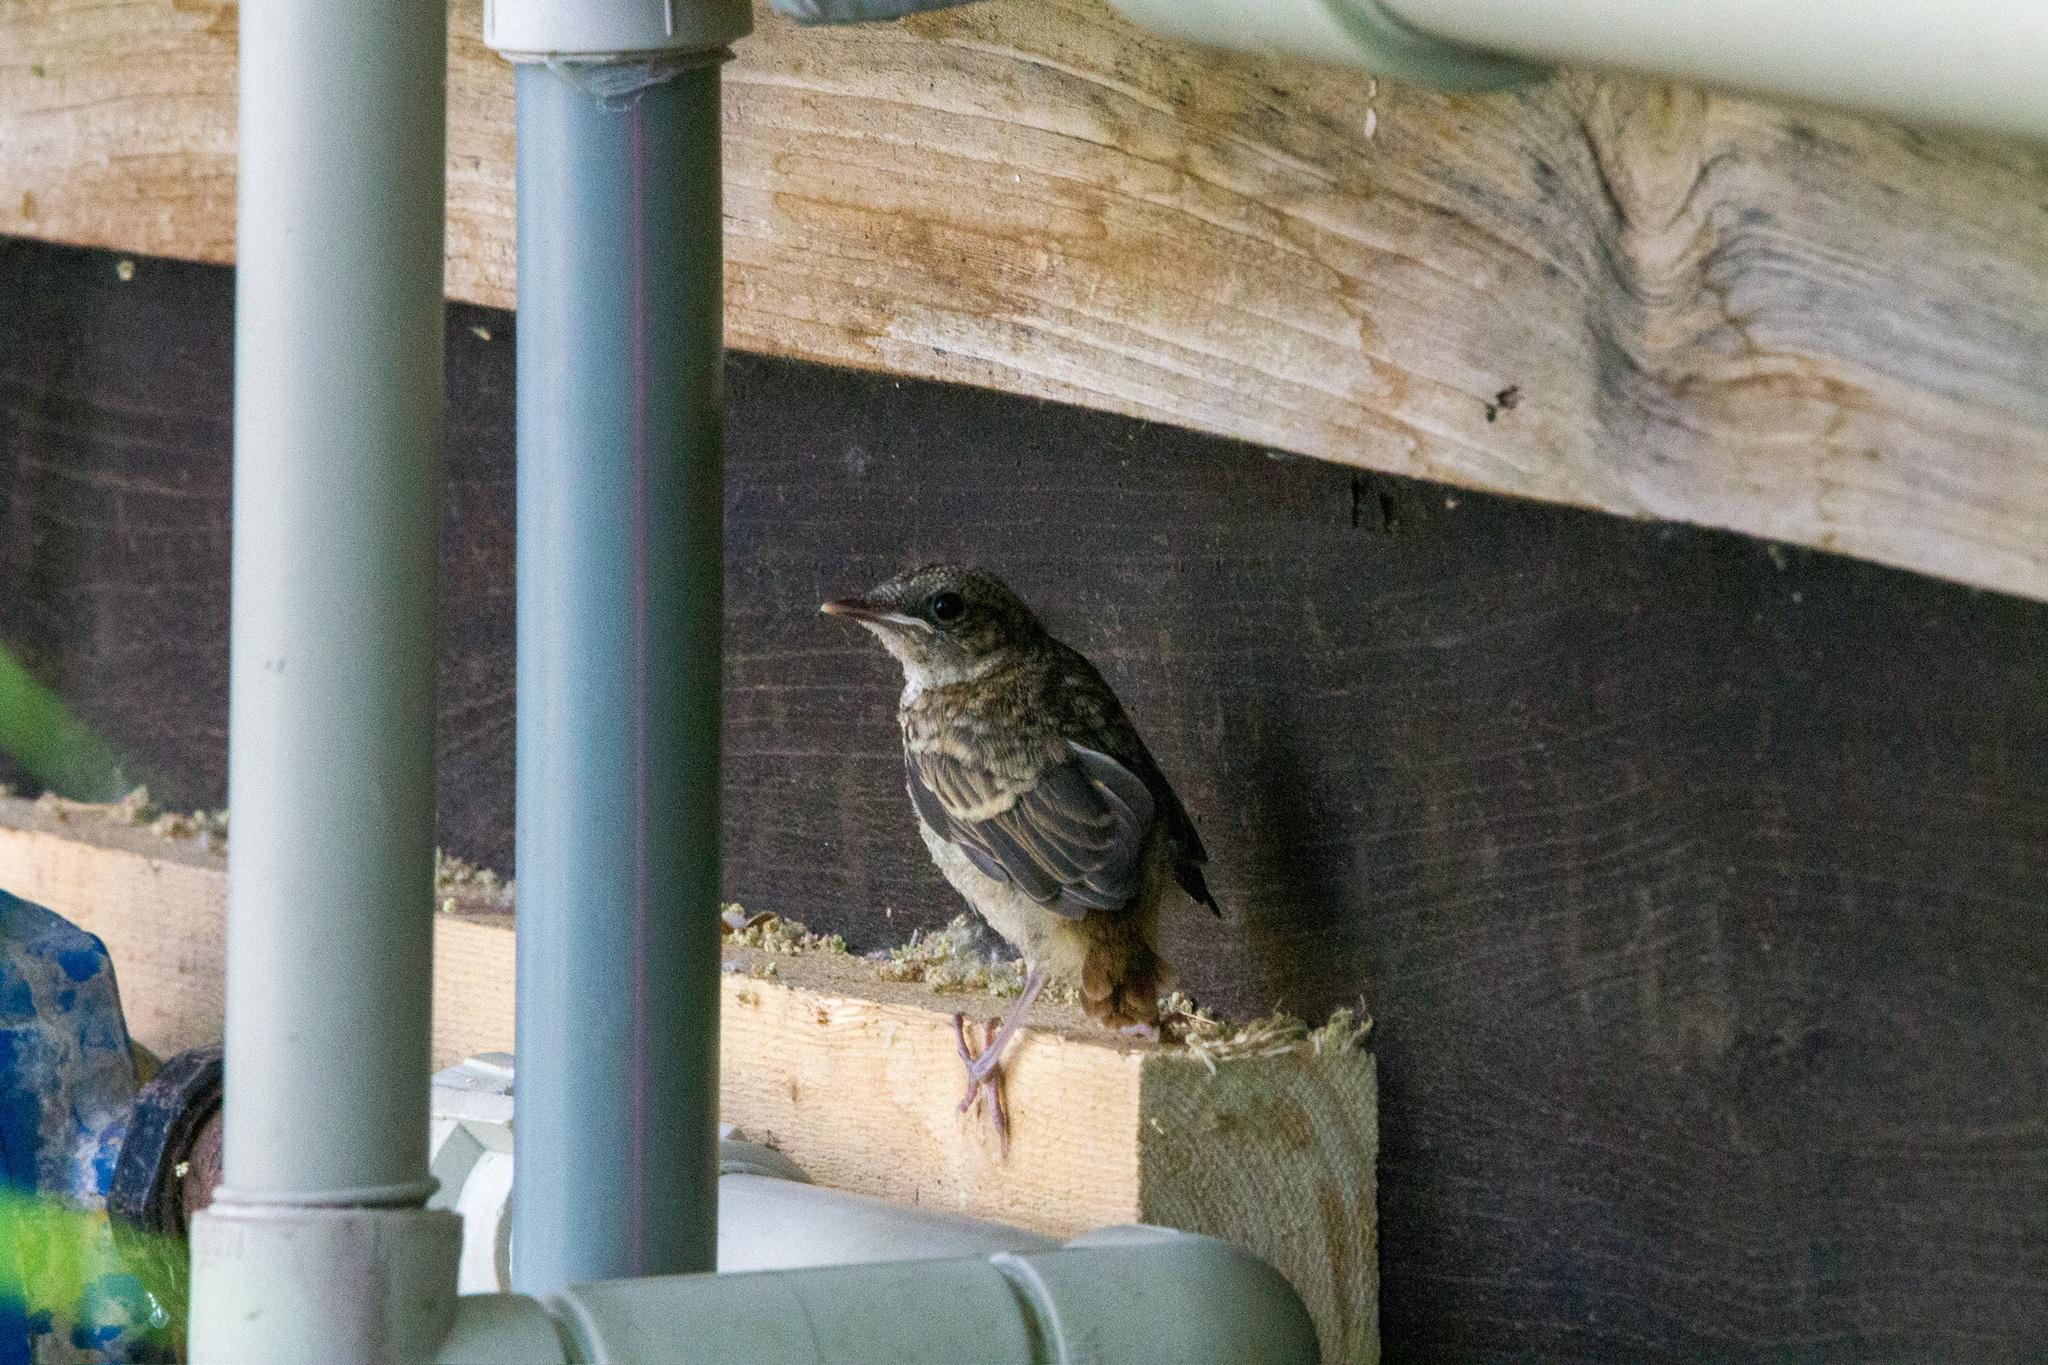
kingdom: Animalia
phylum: Chordata
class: Aves
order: Passeriformes
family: Muscicapidae
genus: Phoenicurus
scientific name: Phoenicurus phoenicurus
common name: Common redstart
